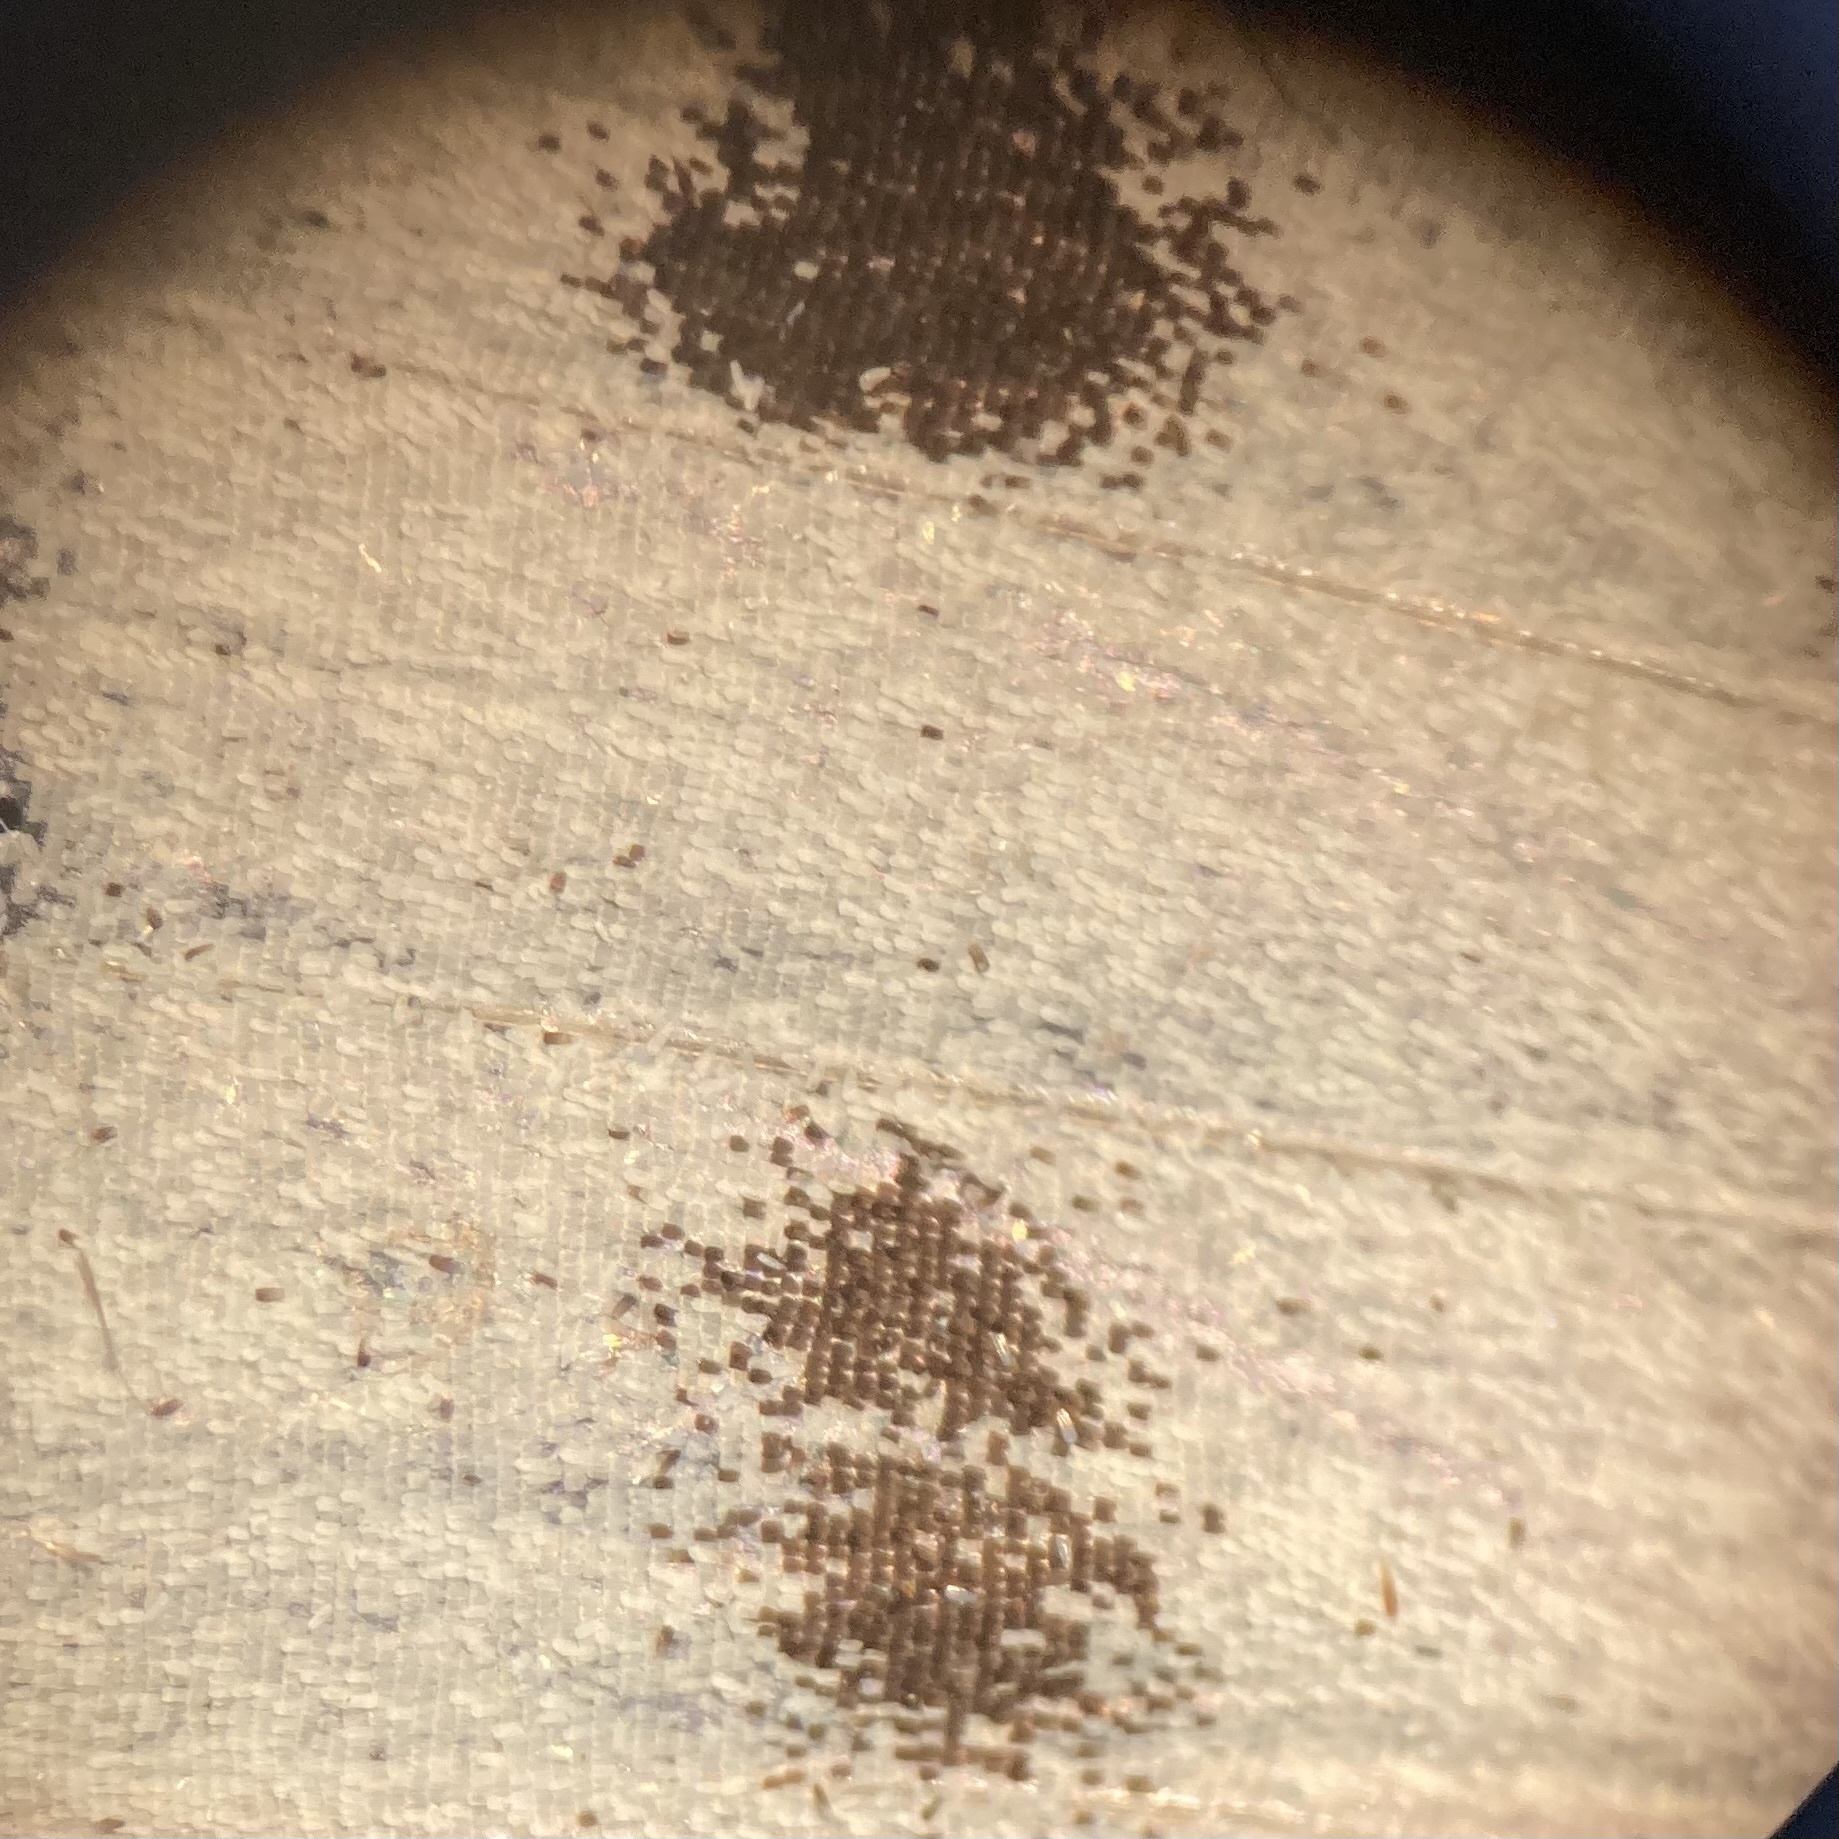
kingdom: Animalia
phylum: Arthropoda
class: Insecta
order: Lepidoptera
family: Pieridae
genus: Pieris
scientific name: Pieris rapae
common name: Small white
